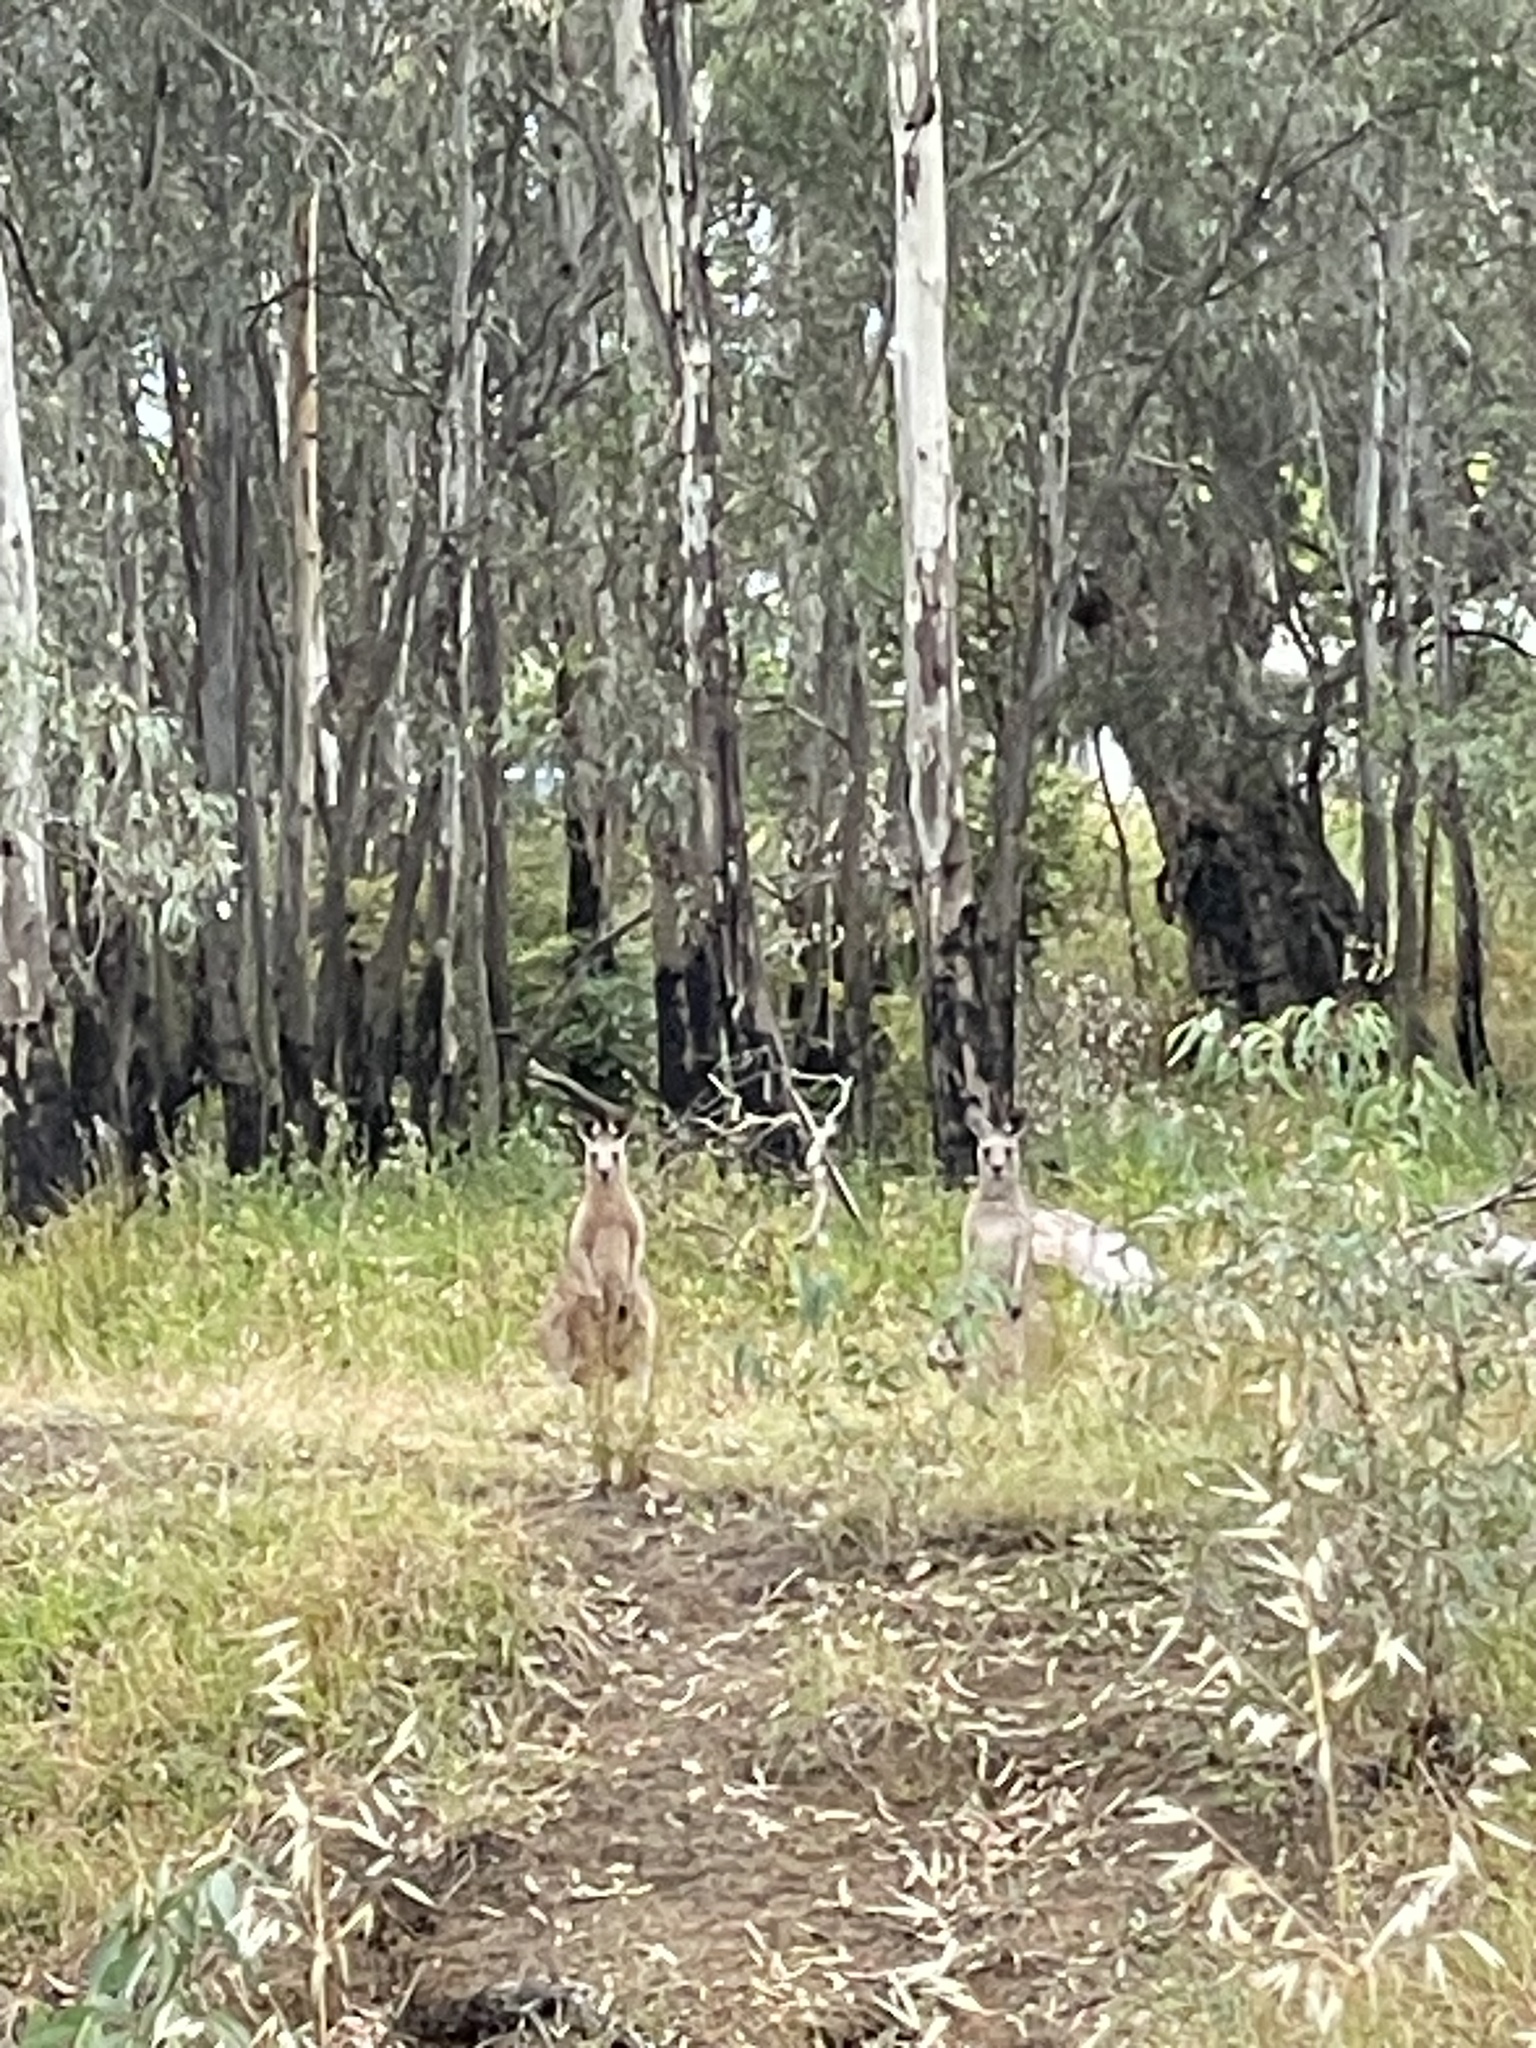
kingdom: Animalia
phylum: Chordata
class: Mammalia
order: Diprotodontia
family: Macropodidae
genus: Macropus
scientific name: Macropus giganteus
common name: Eastern grey kangaroo
